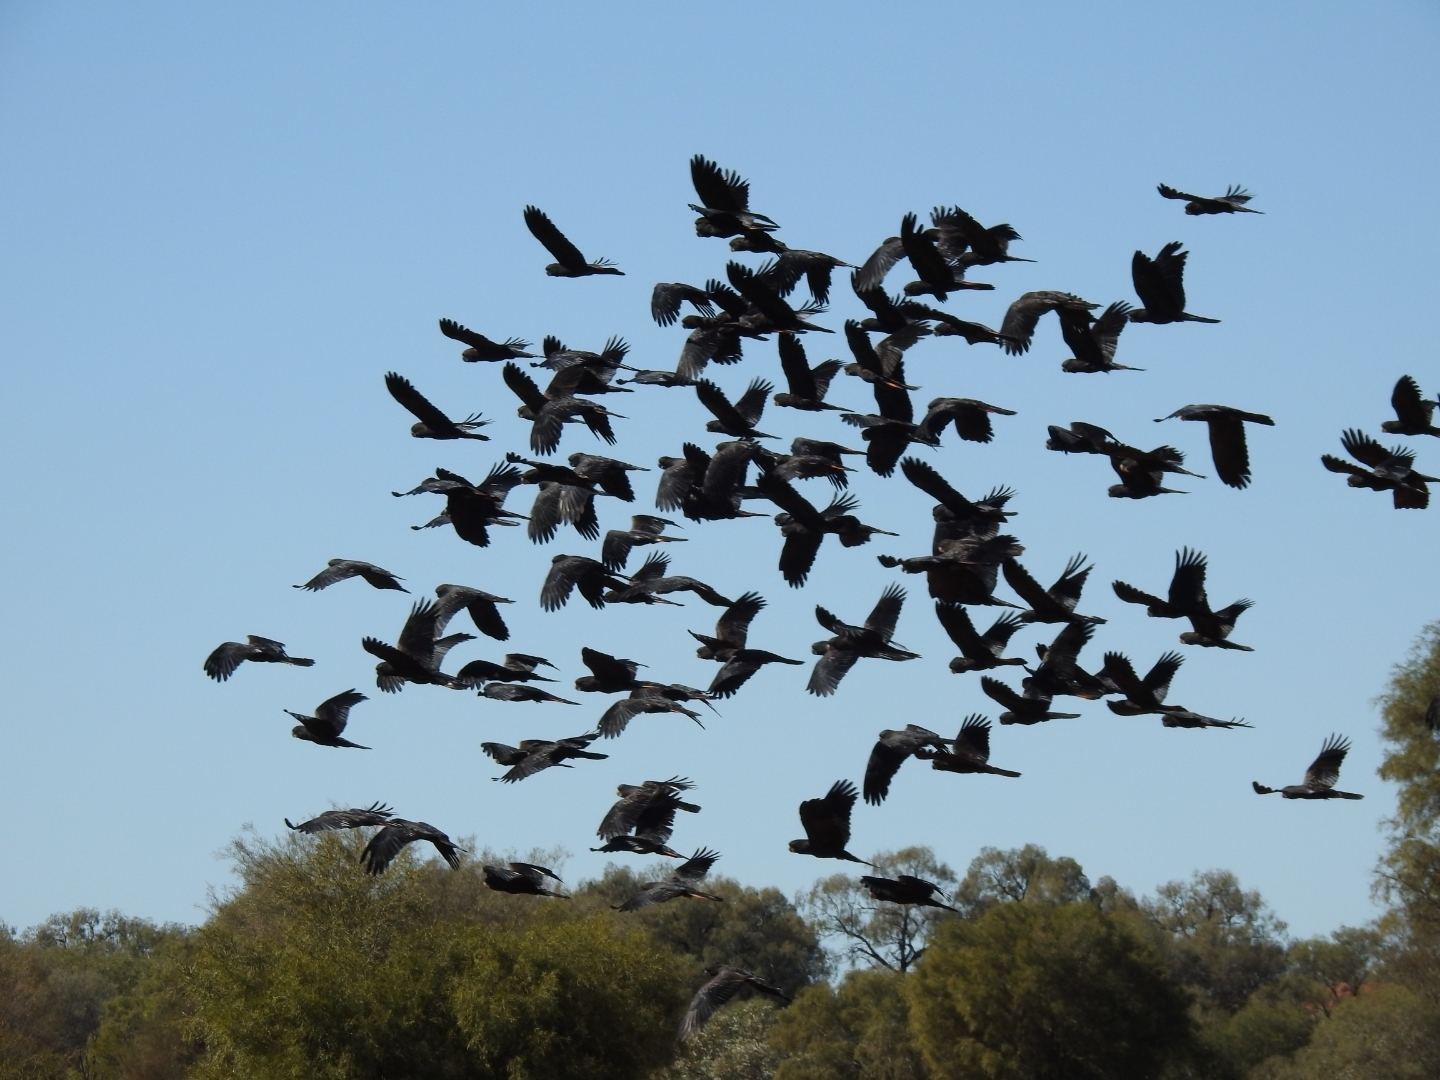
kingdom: Animalia
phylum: Chordata
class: Aves
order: Psittaciformes
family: Psittacidae
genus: Calyptorhynchus
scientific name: Calyptorhynchus banksii
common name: Red-tailed black cockatoo
